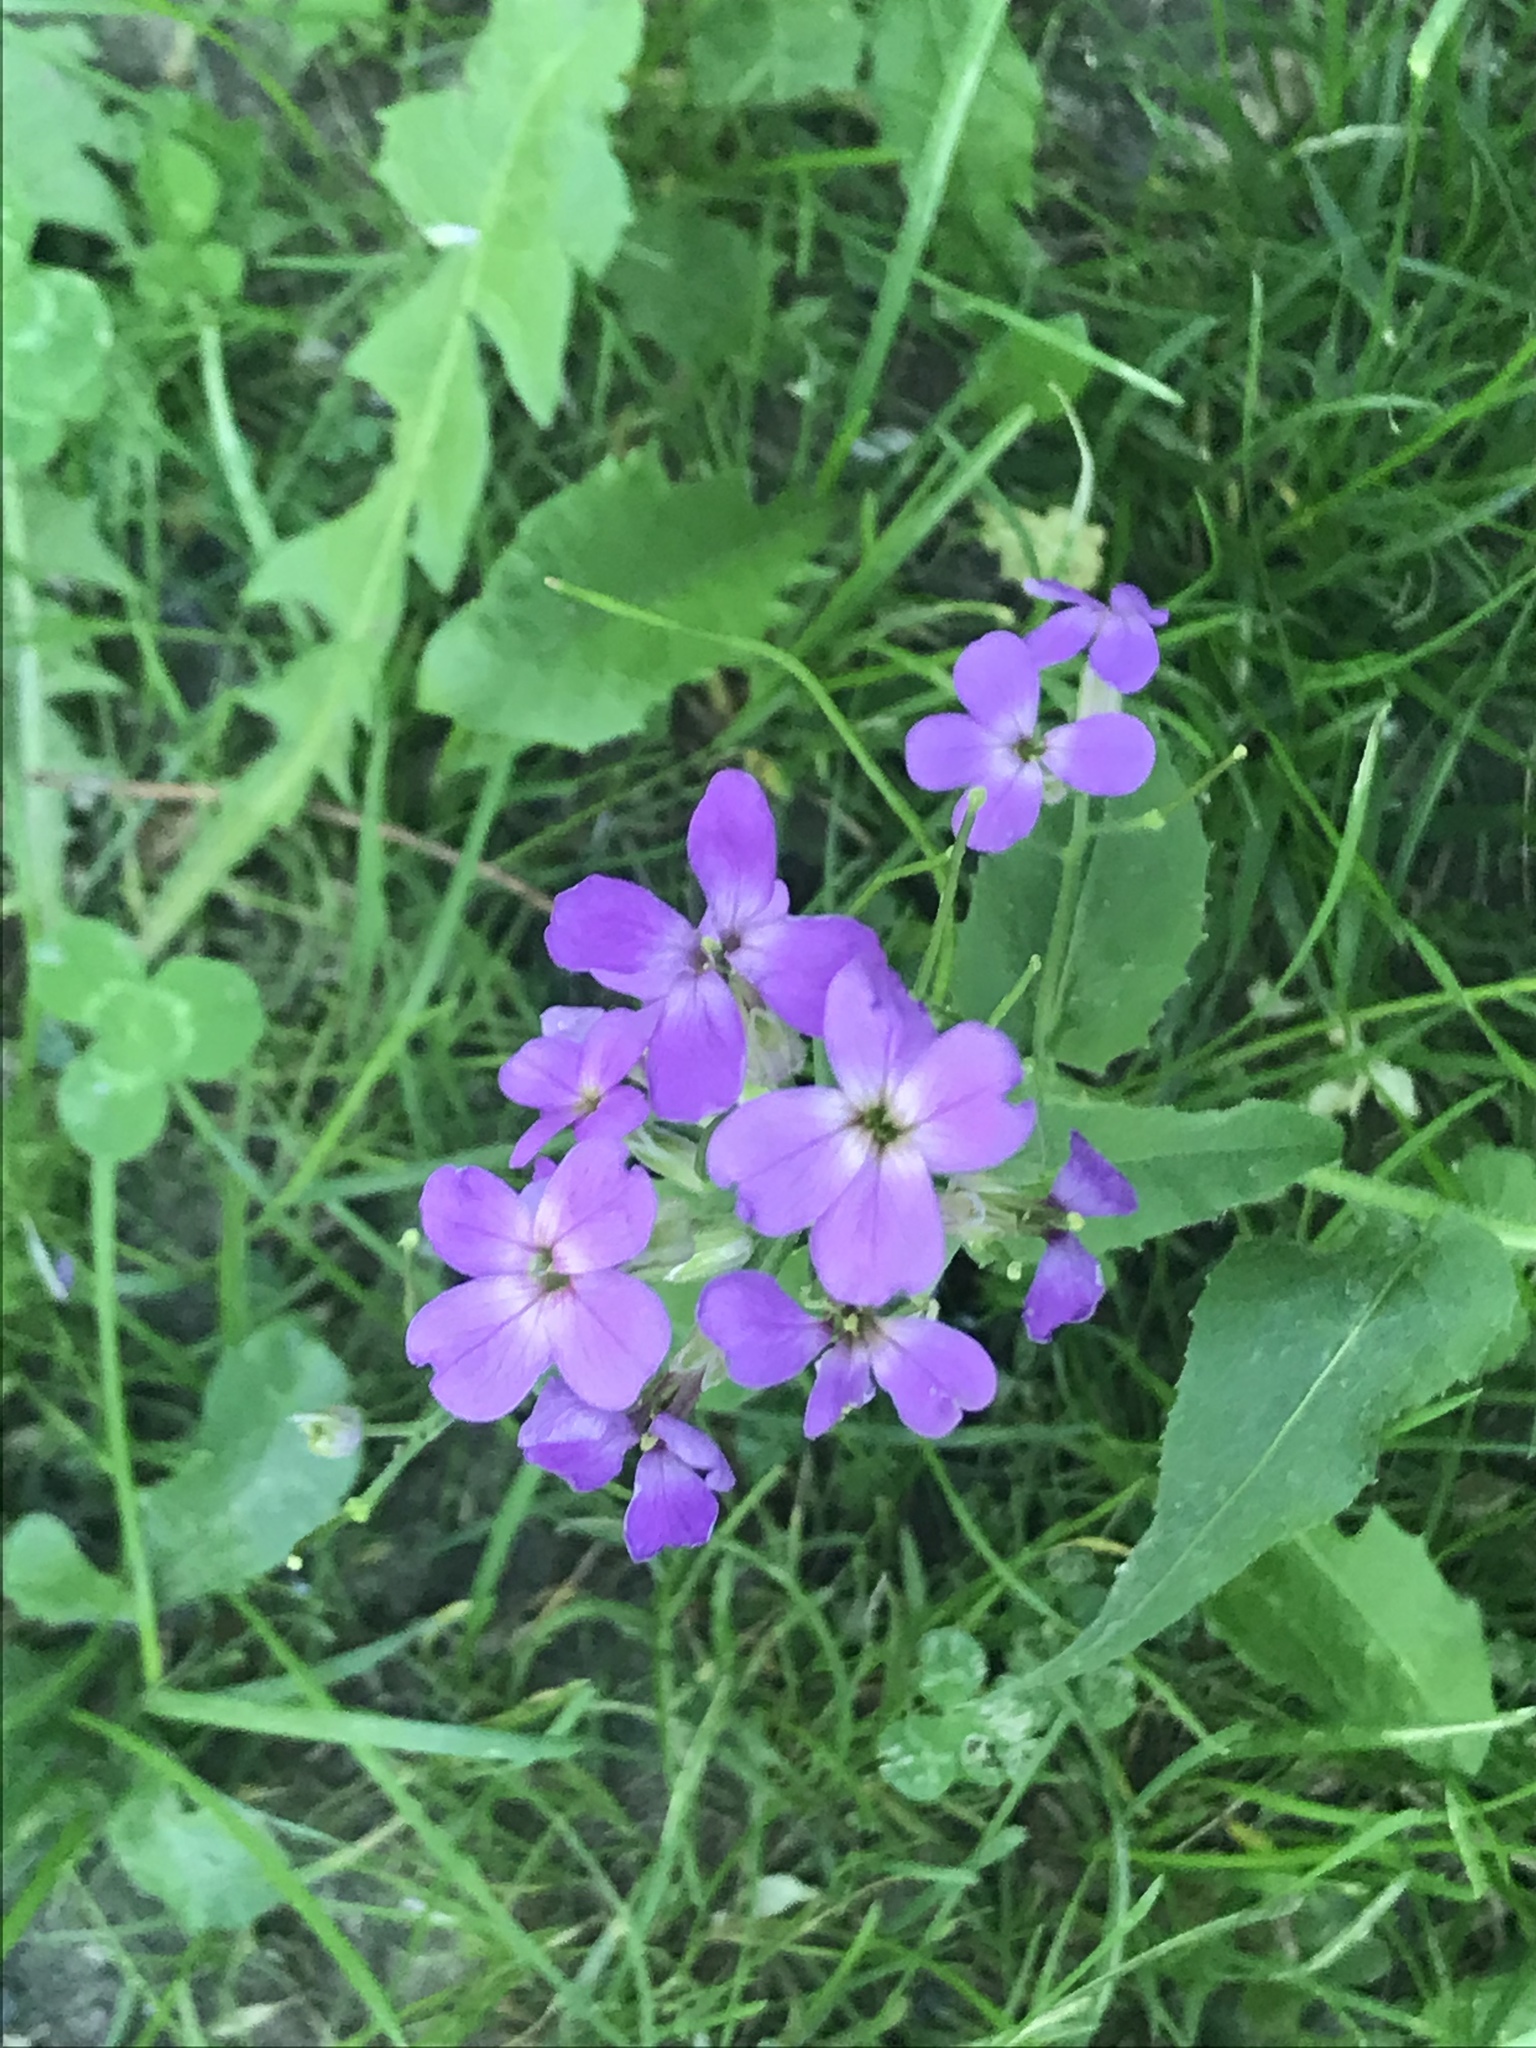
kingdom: Plantae
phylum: Tracheophyta
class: Magnoliopsida
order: Brassicales
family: Brassicaceae
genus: Hesperis
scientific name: Hesperis matronalis
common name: Dame's-violet
